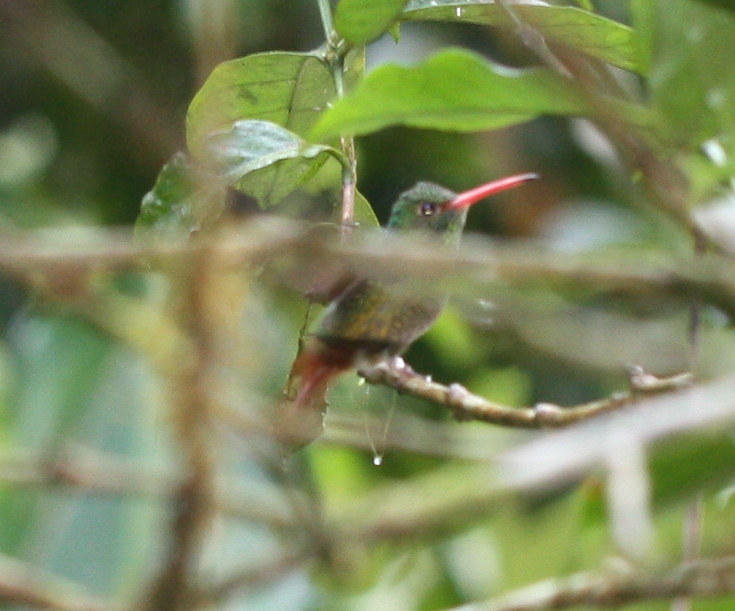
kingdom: Animalia
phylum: Chordata
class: Aves
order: Apodiformes
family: Trochilidae
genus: Amazilia
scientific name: Amazilia tzacatl
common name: Rufous-tailed hummingbird
